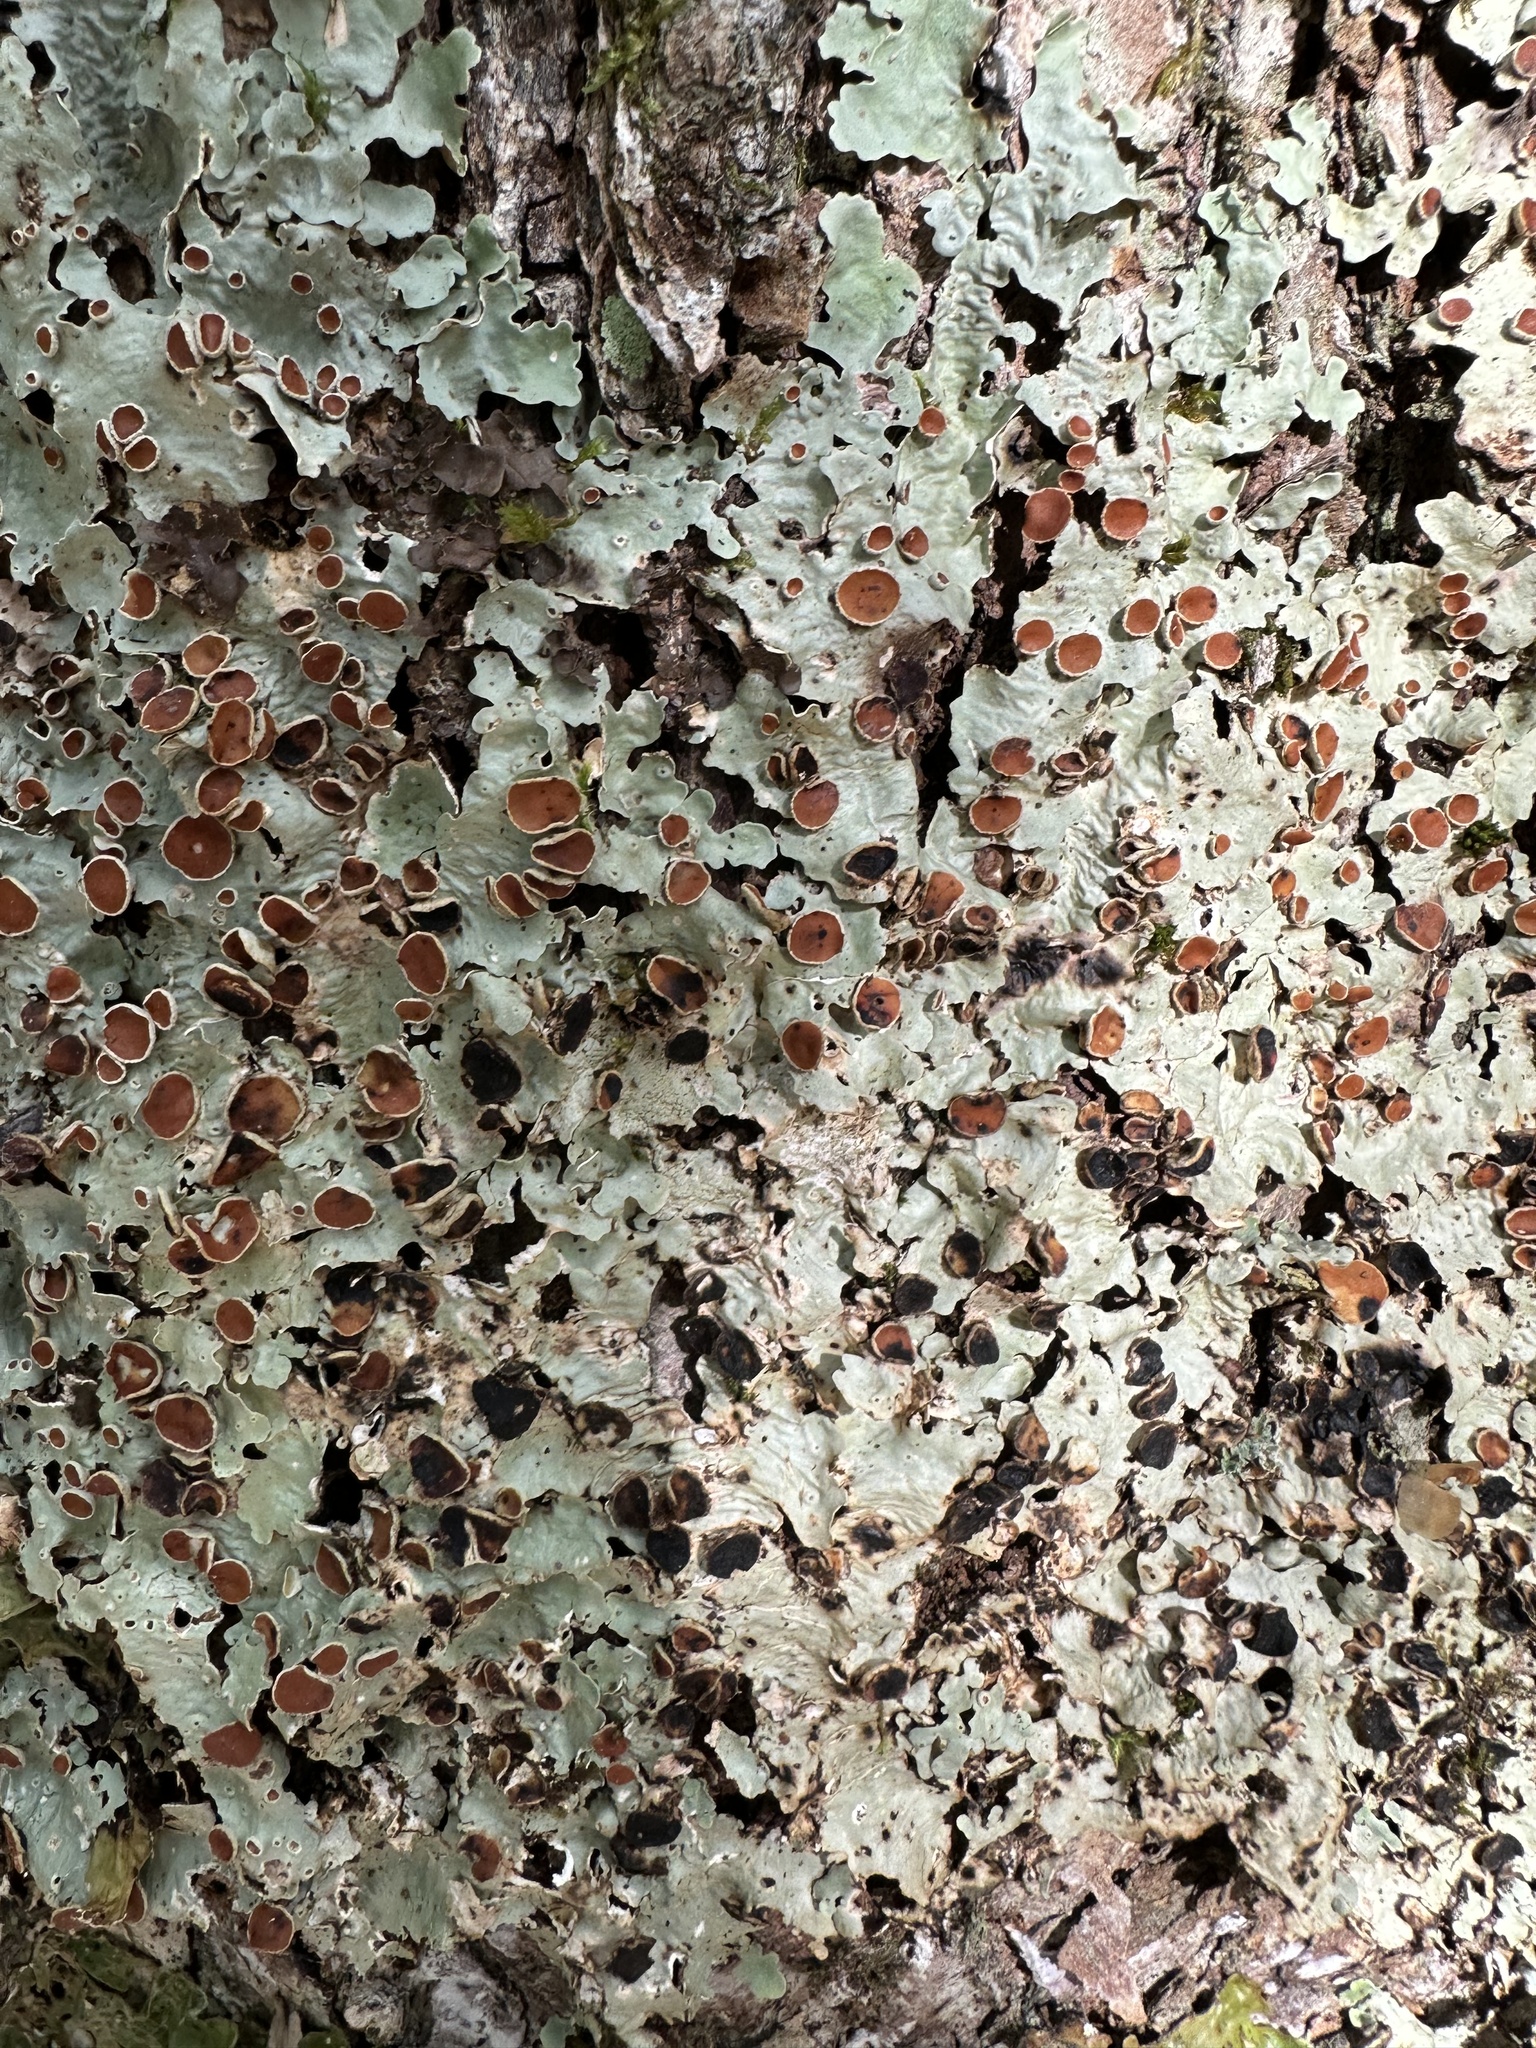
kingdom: Fungi
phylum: Ascomycota
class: Lecanoromycetes
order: Peltigerales
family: Lobariaceae
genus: Ricasolia
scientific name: Ricasolia quercizans
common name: Smooth lungwort
